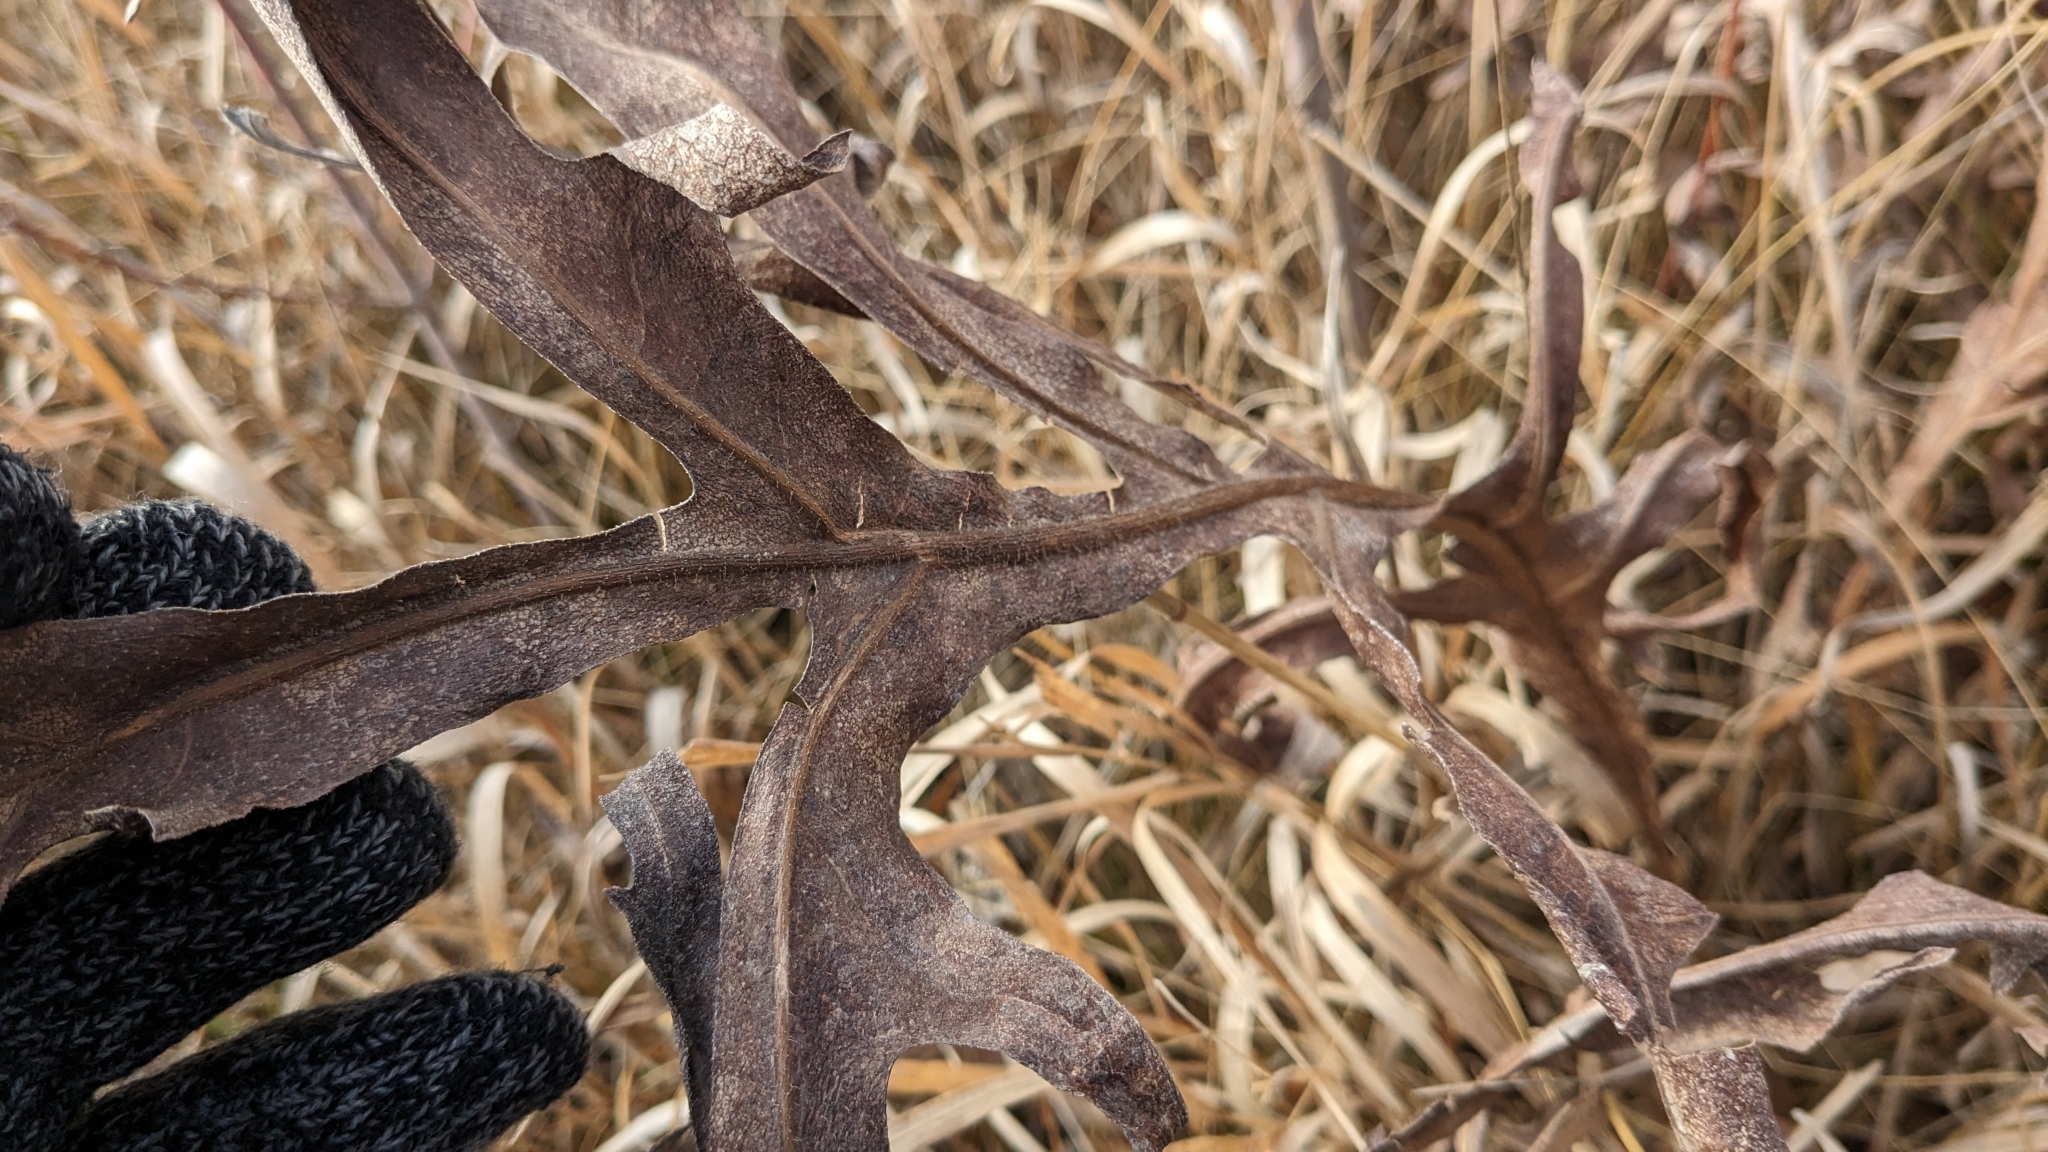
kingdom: Plantae
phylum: Tracheophyta
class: Magnoliopsida
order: Asterales
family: Asteraceae
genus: Silphium
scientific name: Silphium laciniatum
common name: Polarplant
